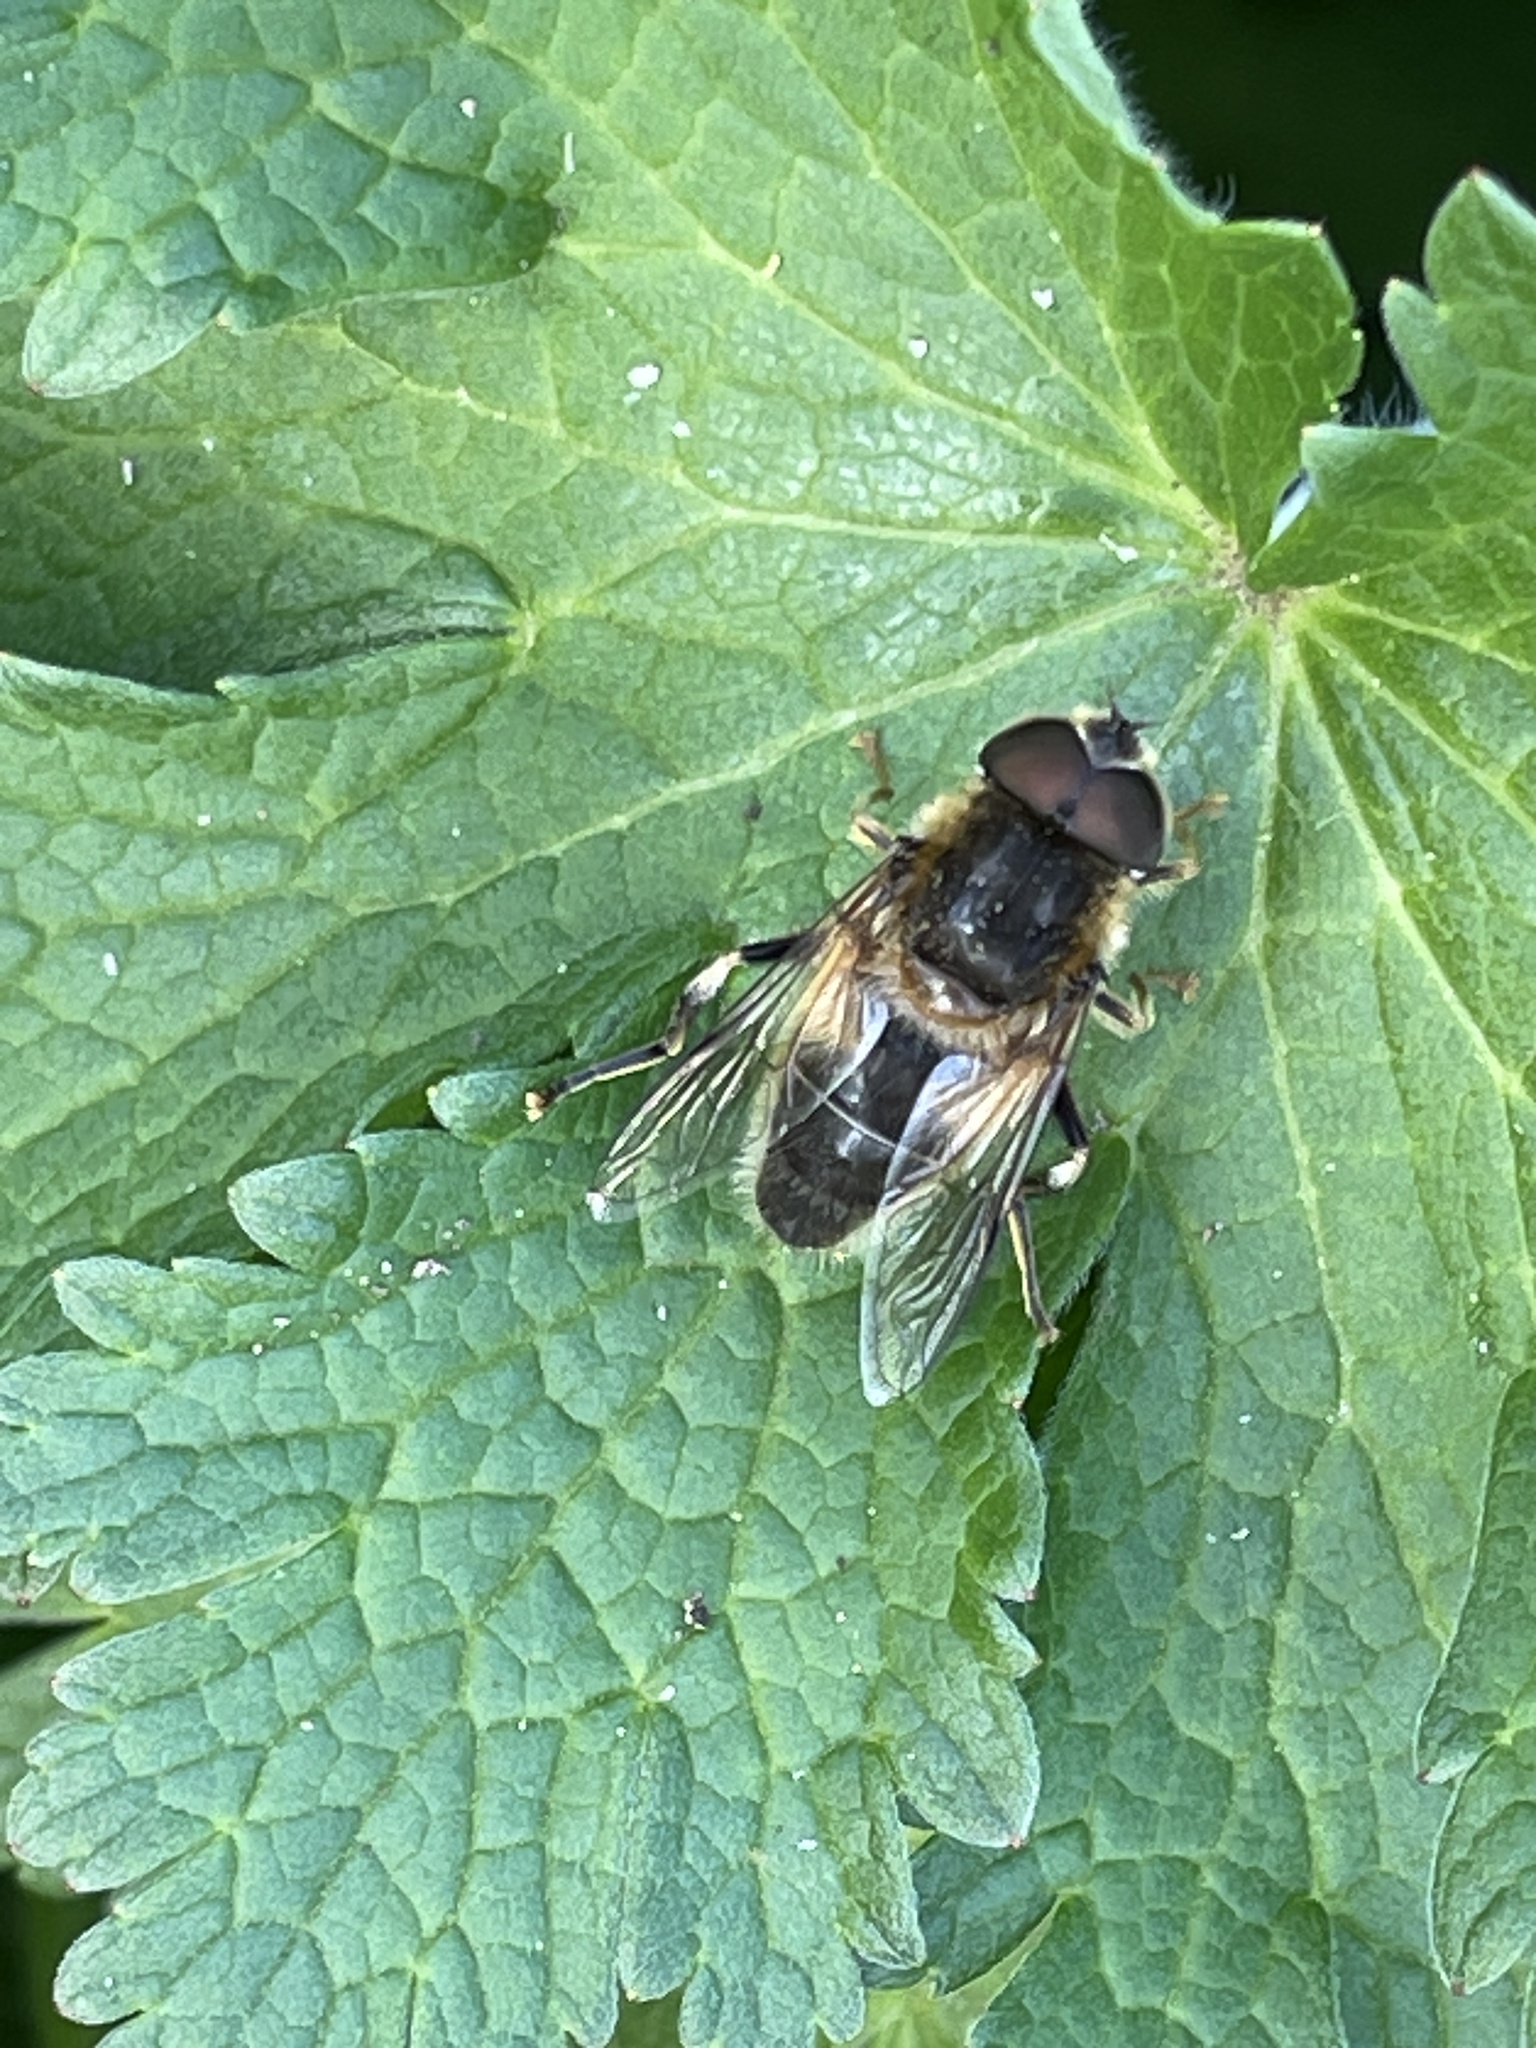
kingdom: Animalia
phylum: Arthropoda
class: Insecta
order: Diptera
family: Syrphidae
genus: Eristalis
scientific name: Eristalis pertinax
